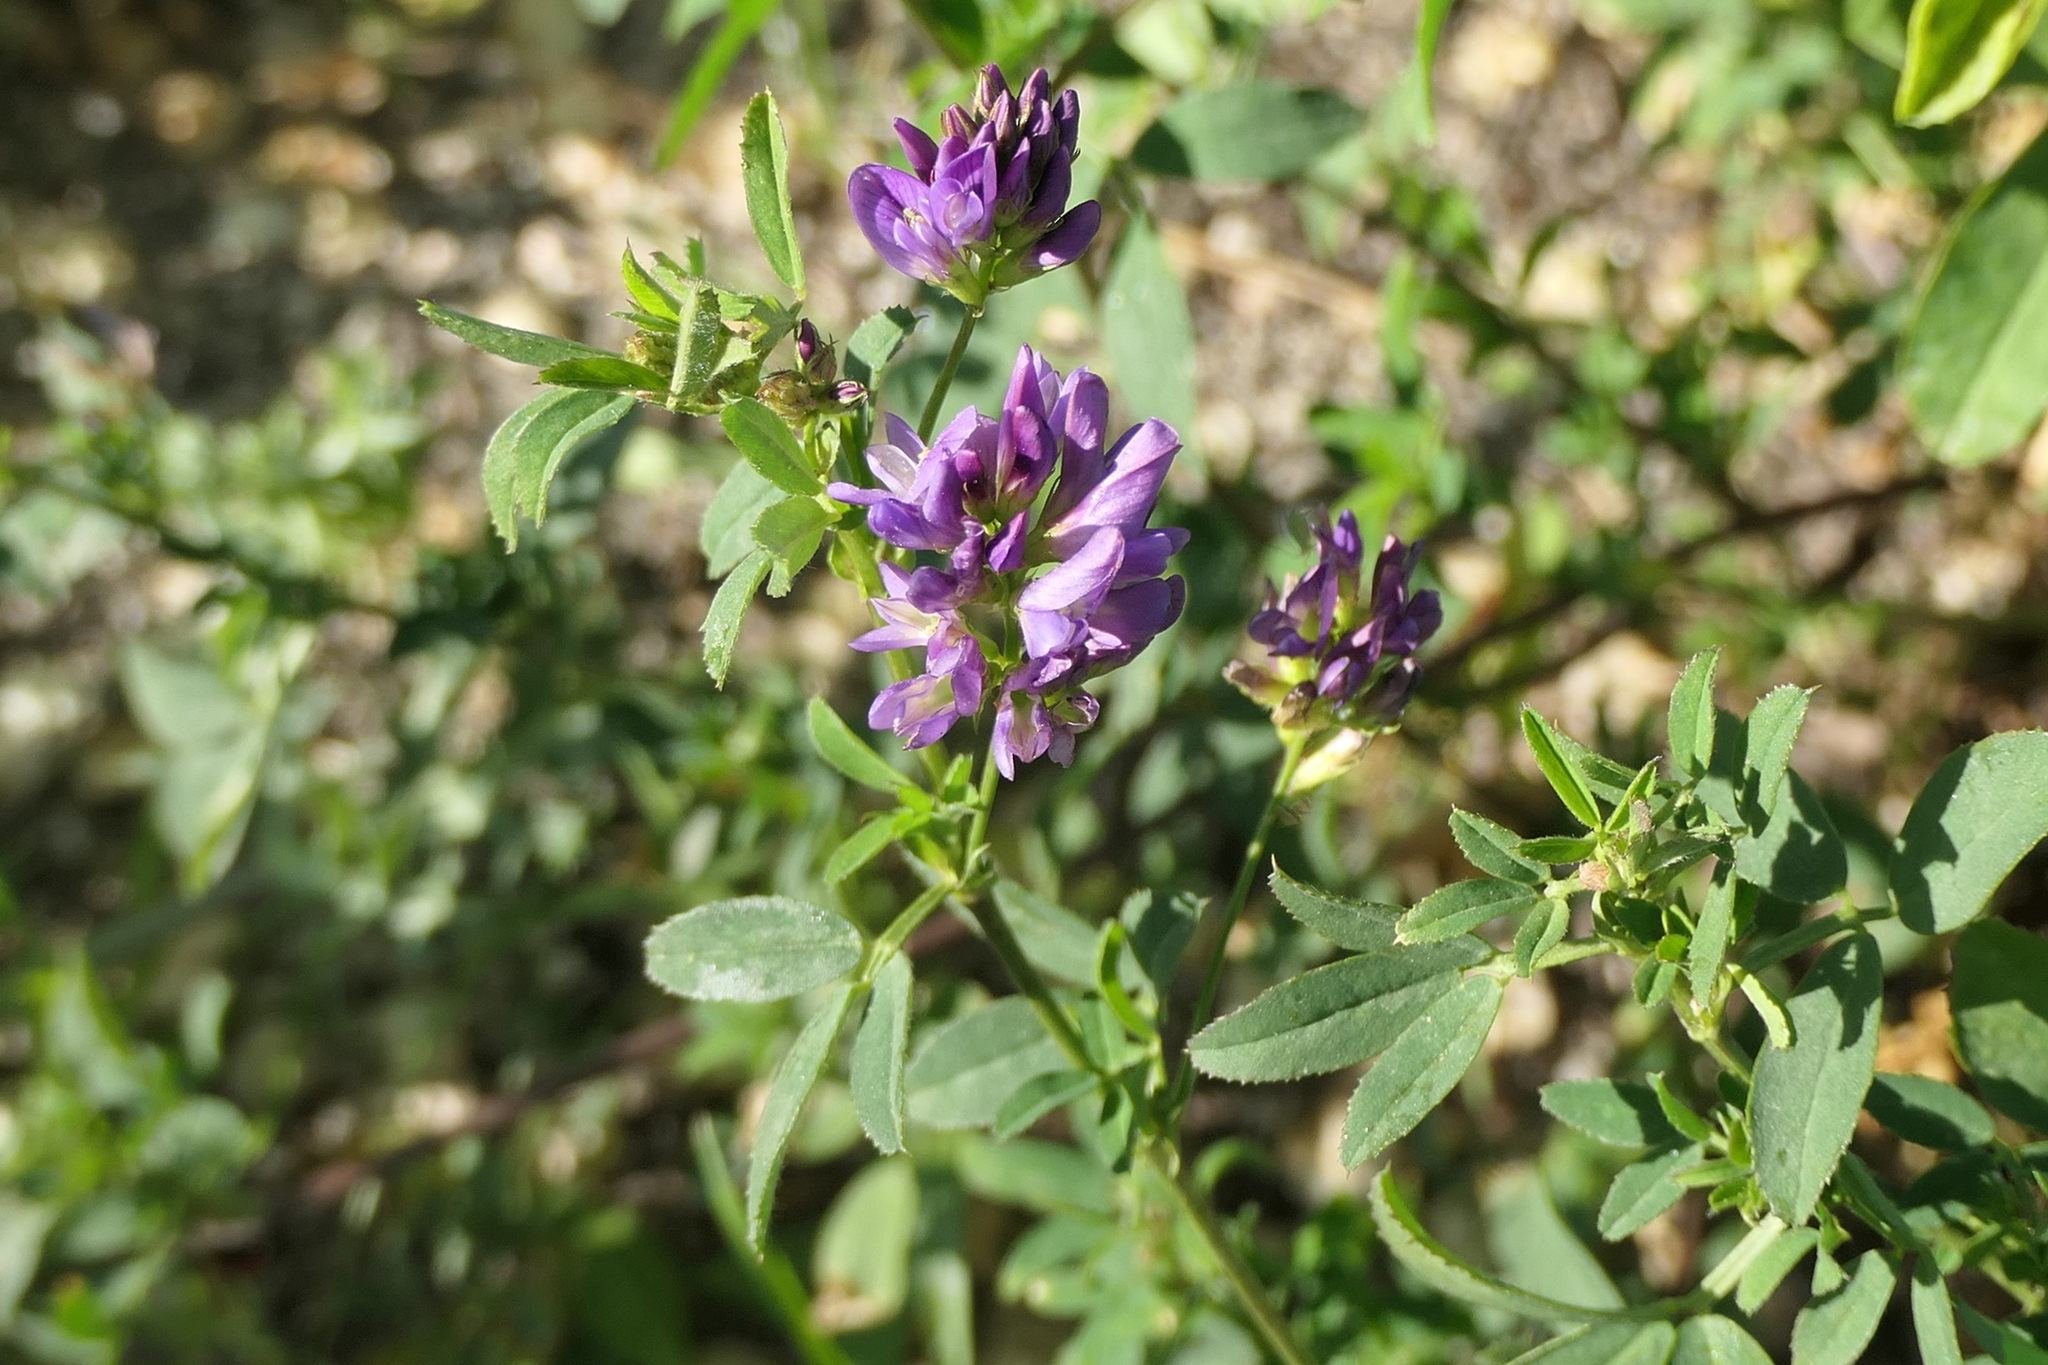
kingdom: Plantae
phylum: Tracheophyta
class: Magnoliopsida
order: Fabales
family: Fabaceae
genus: Medicago
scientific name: Medicago sativa
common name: Alfalfa
